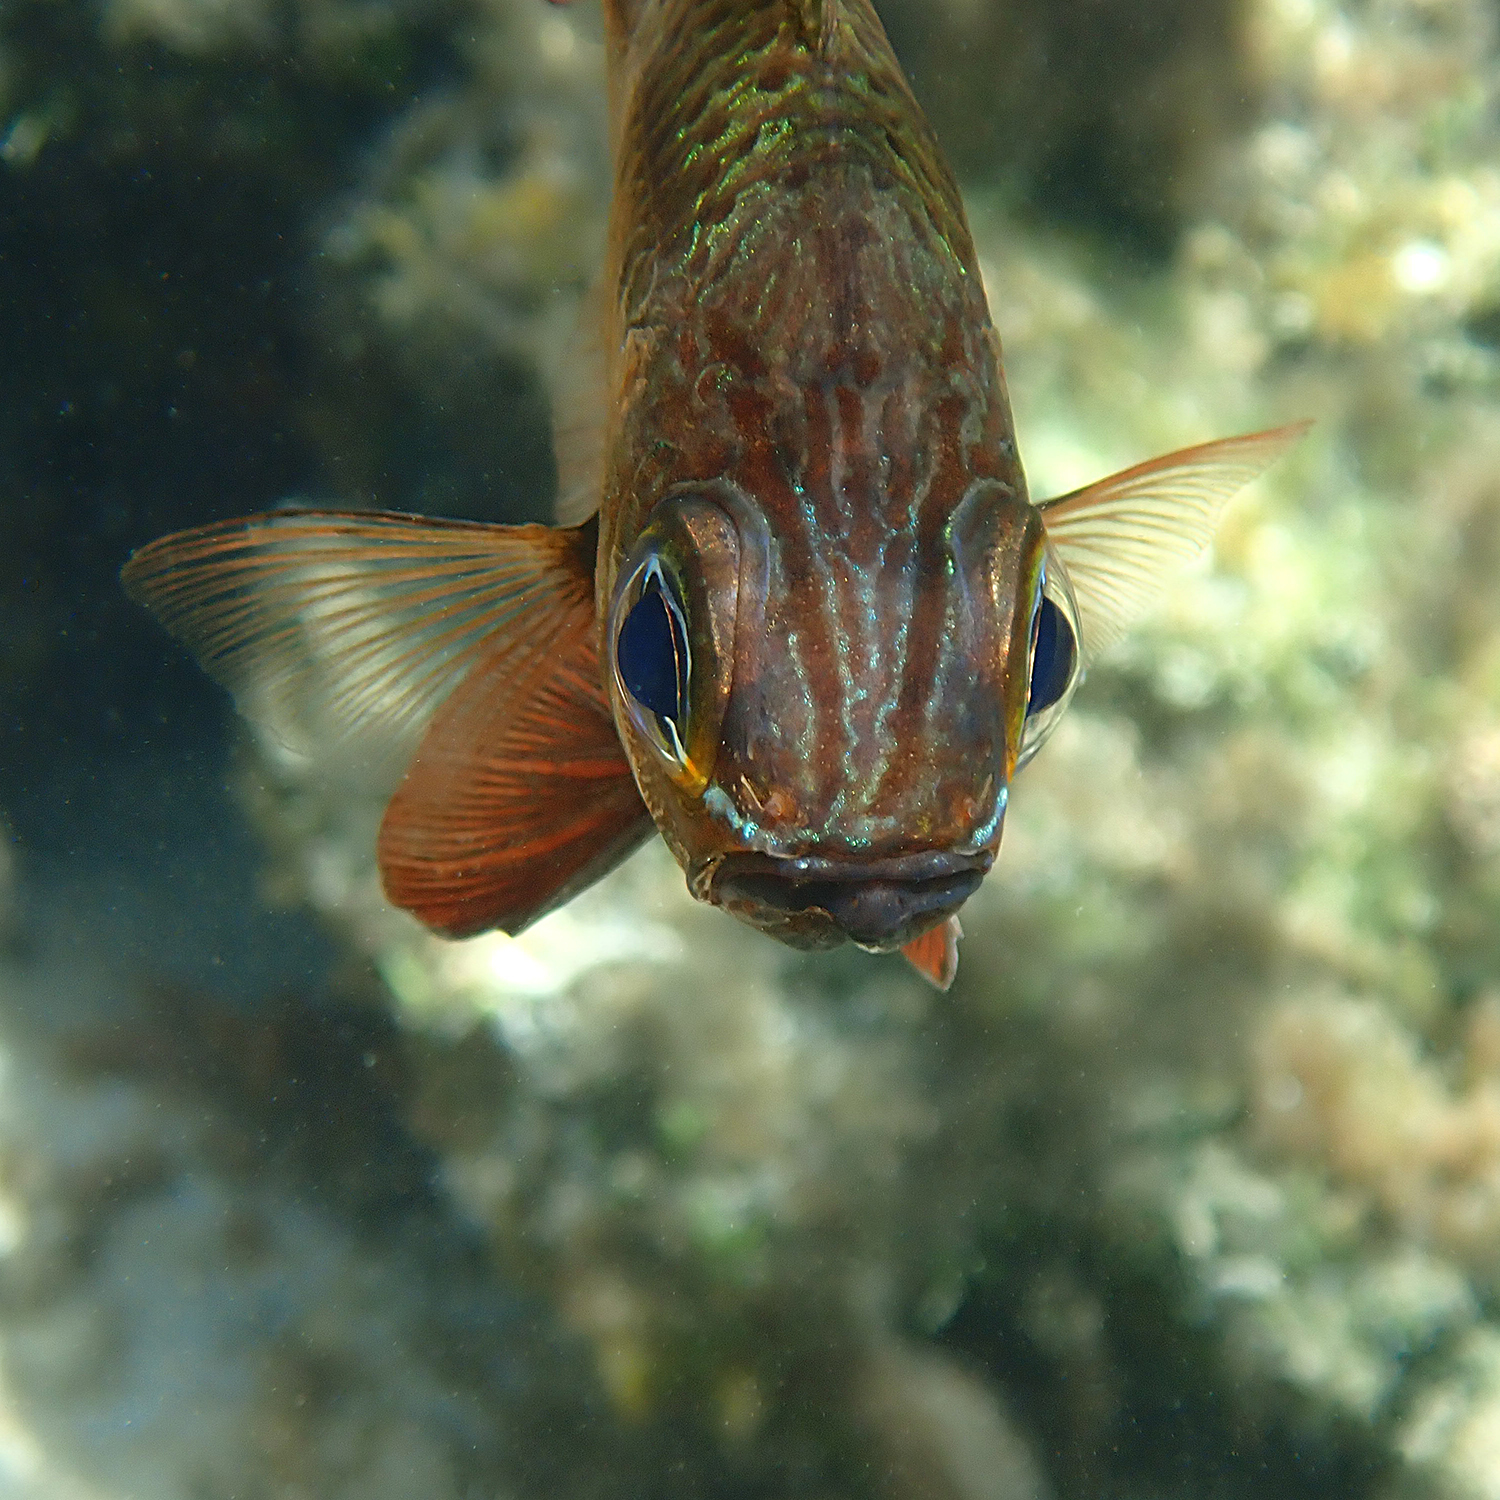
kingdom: Animalia
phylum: Chordata
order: Perciformes
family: Apogonidae
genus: Ostorhinchus
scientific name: Ostorhinchus norfolcensis
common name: Norfolk cardinalfish
